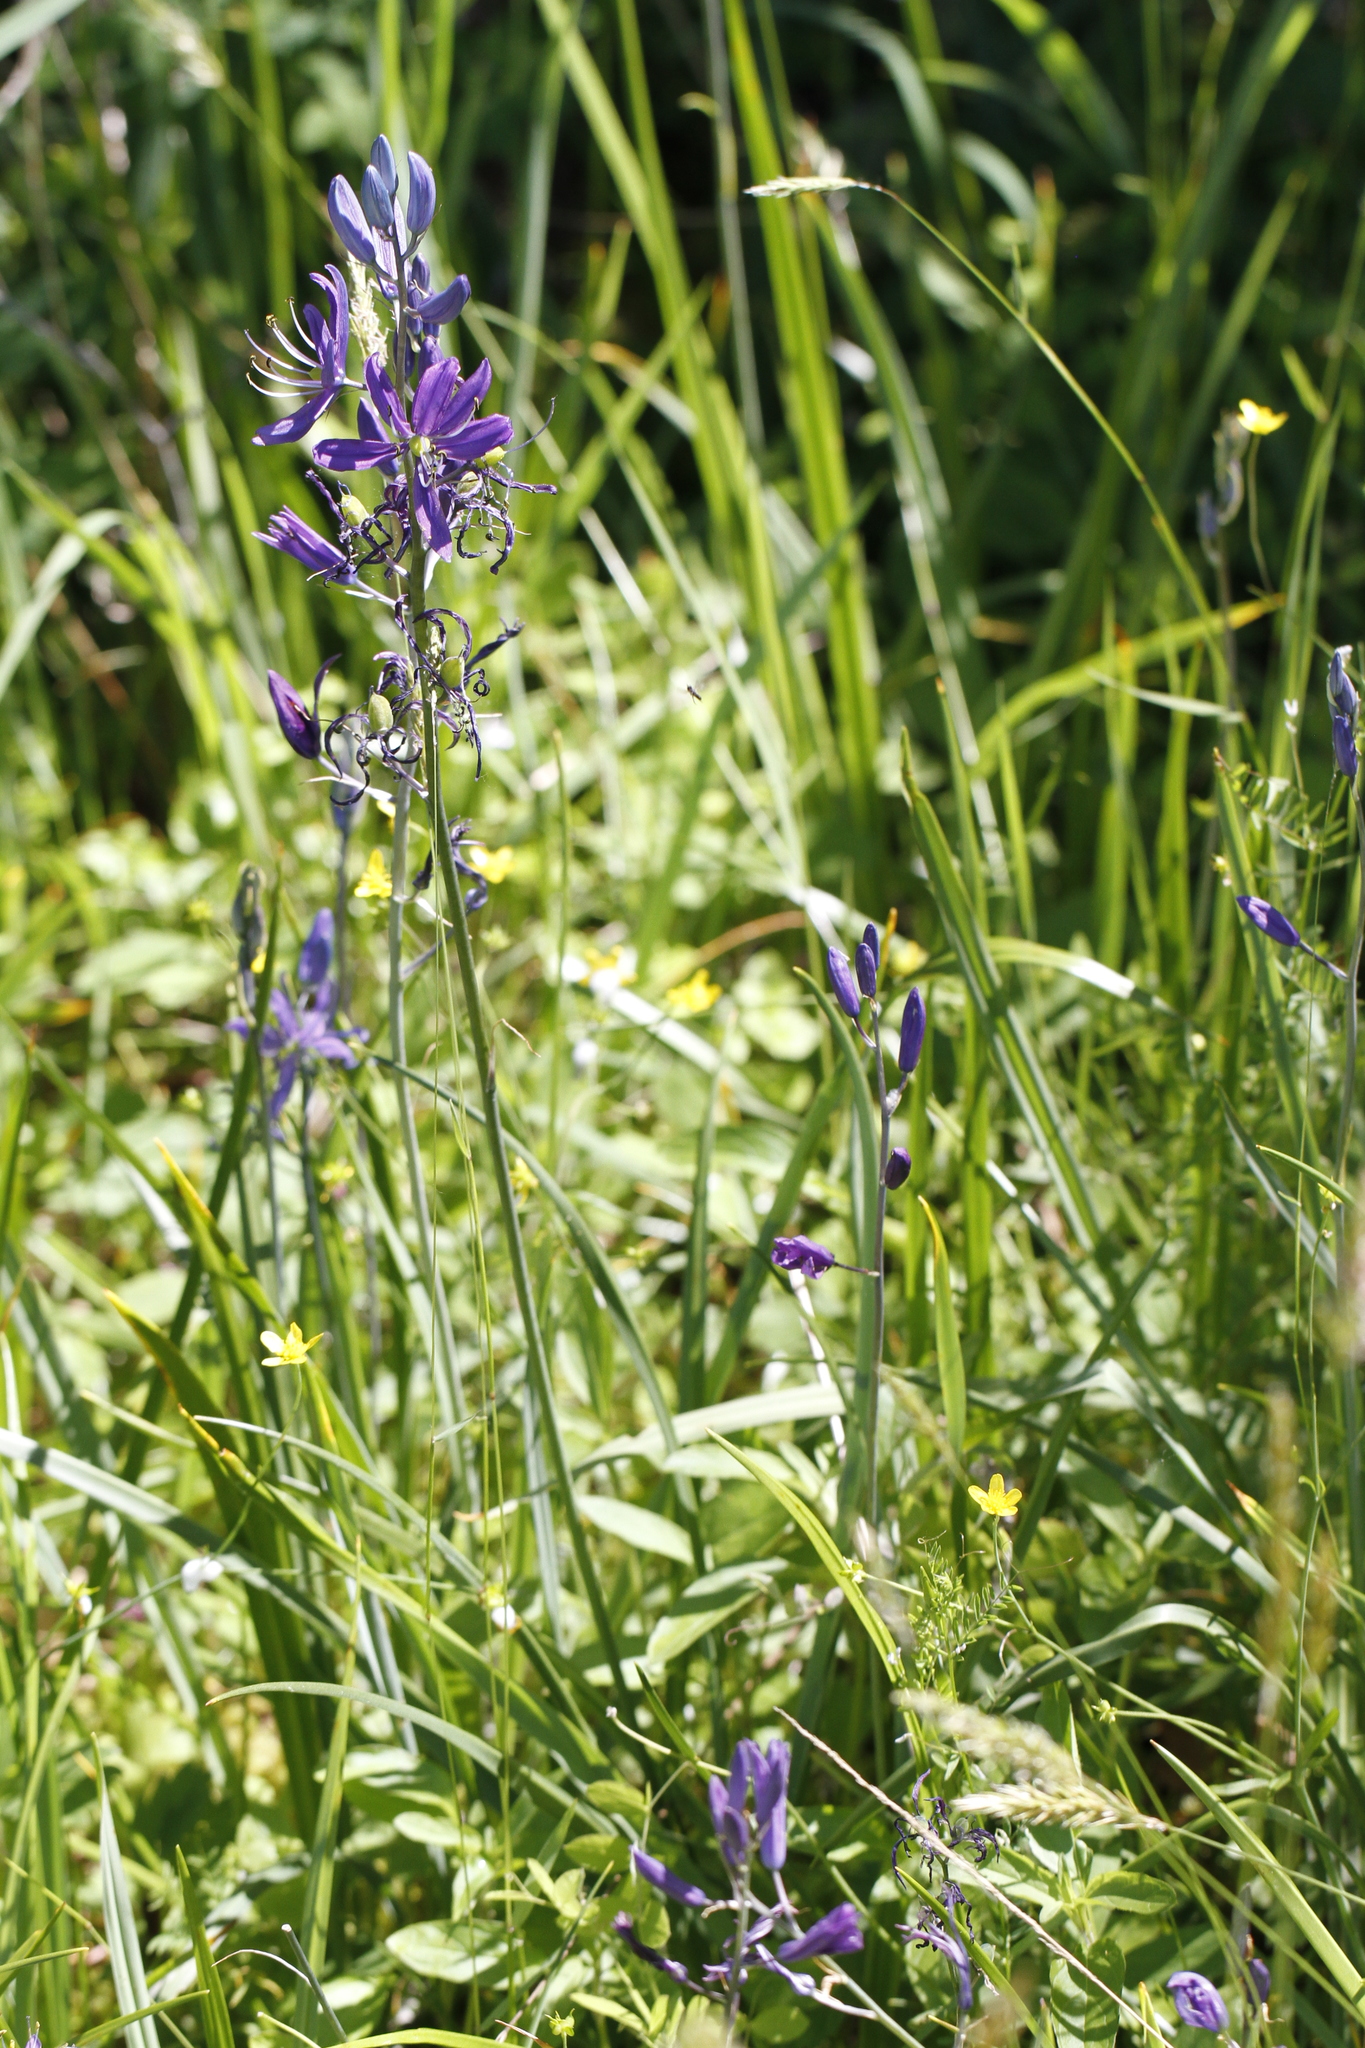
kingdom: Plantae
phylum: Tracheophyta
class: Liliopsida
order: Asparagales
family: Asparagaceae
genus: Camassia
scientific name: Camassia quamash
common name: Common camas
